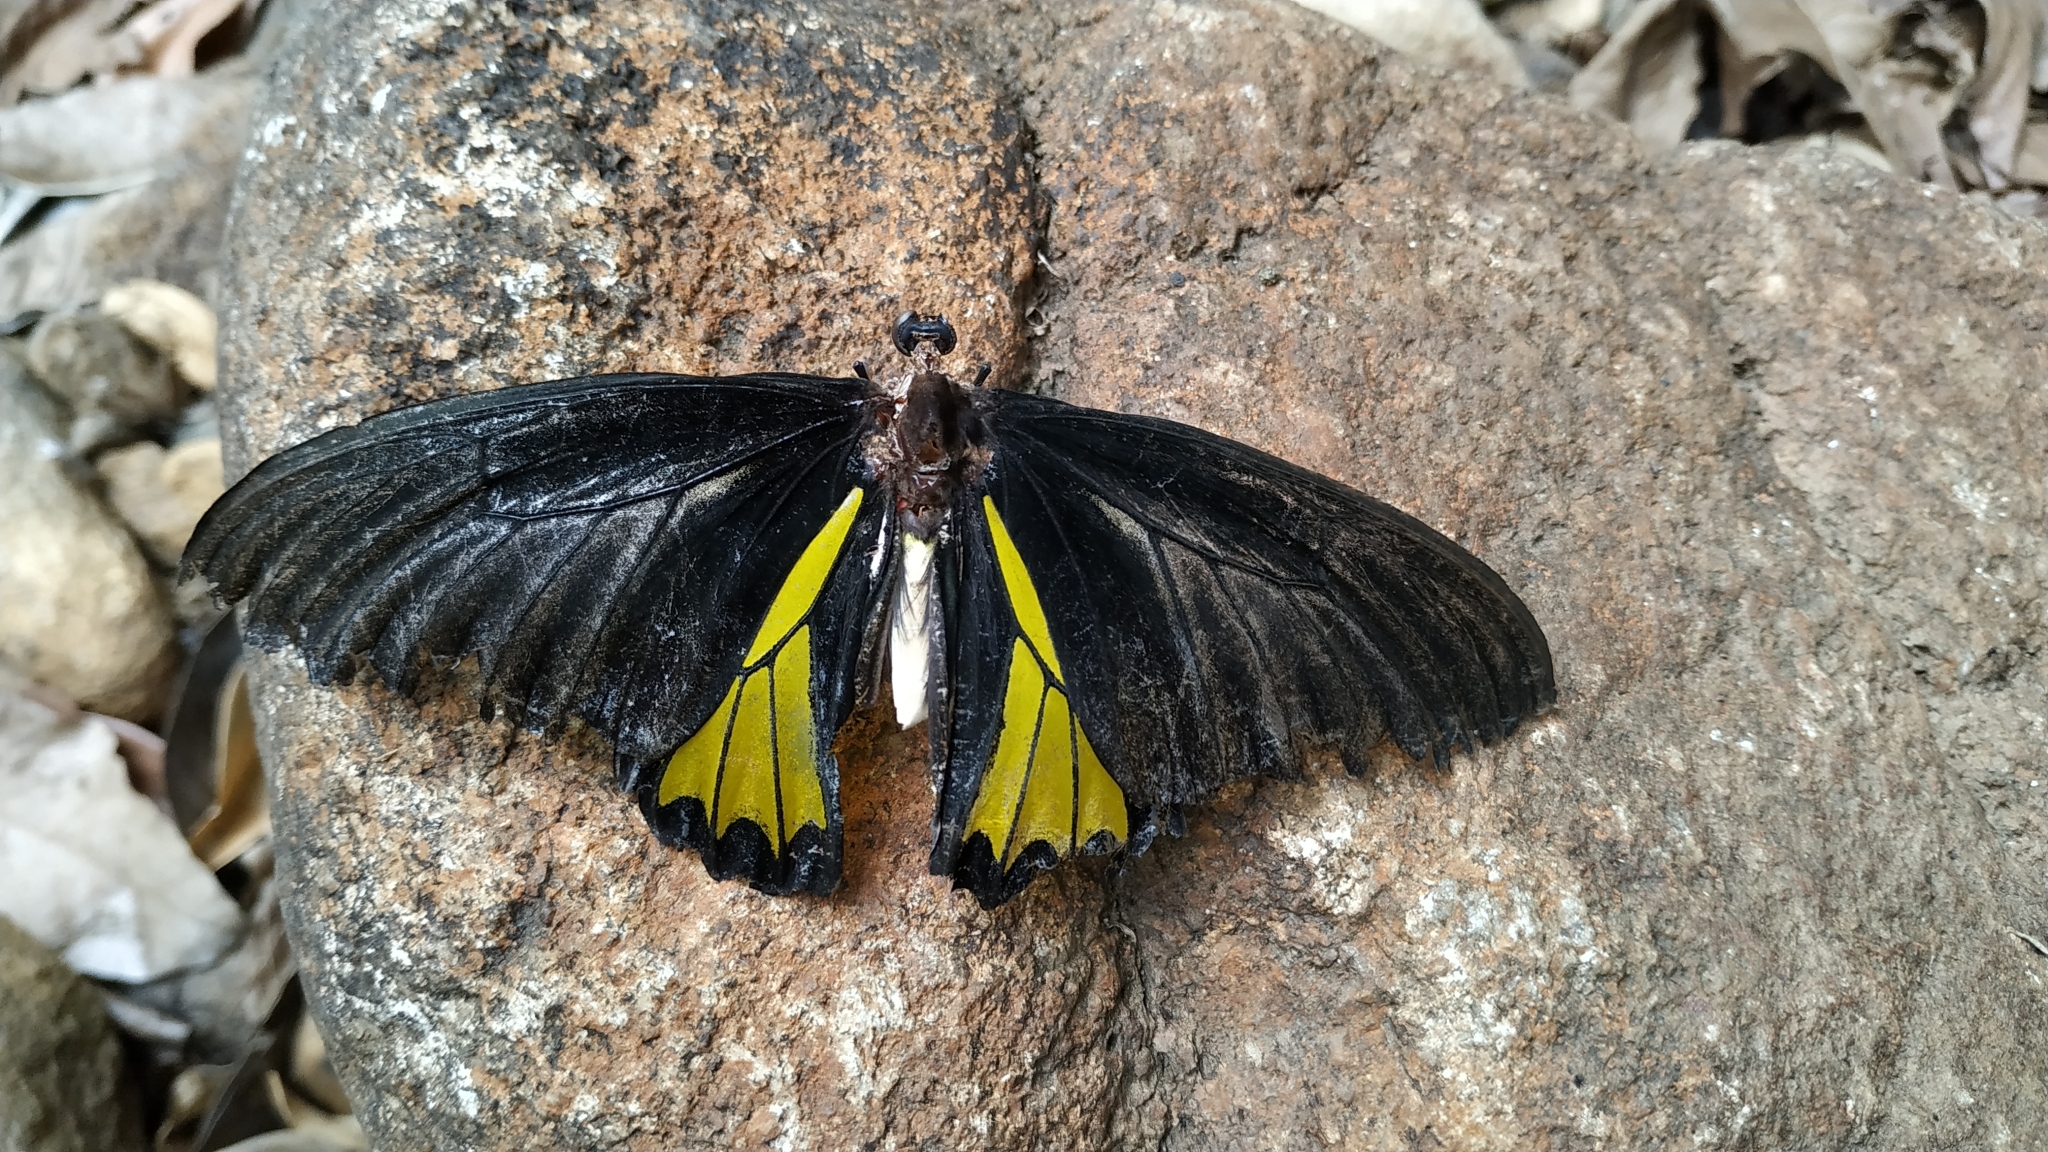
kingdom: Animalia
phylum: Arthropoda
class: Insecta
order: Lepidoptera
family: Papilionidae
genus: Troides
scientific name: Troides minos
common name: Malabar birdwing
